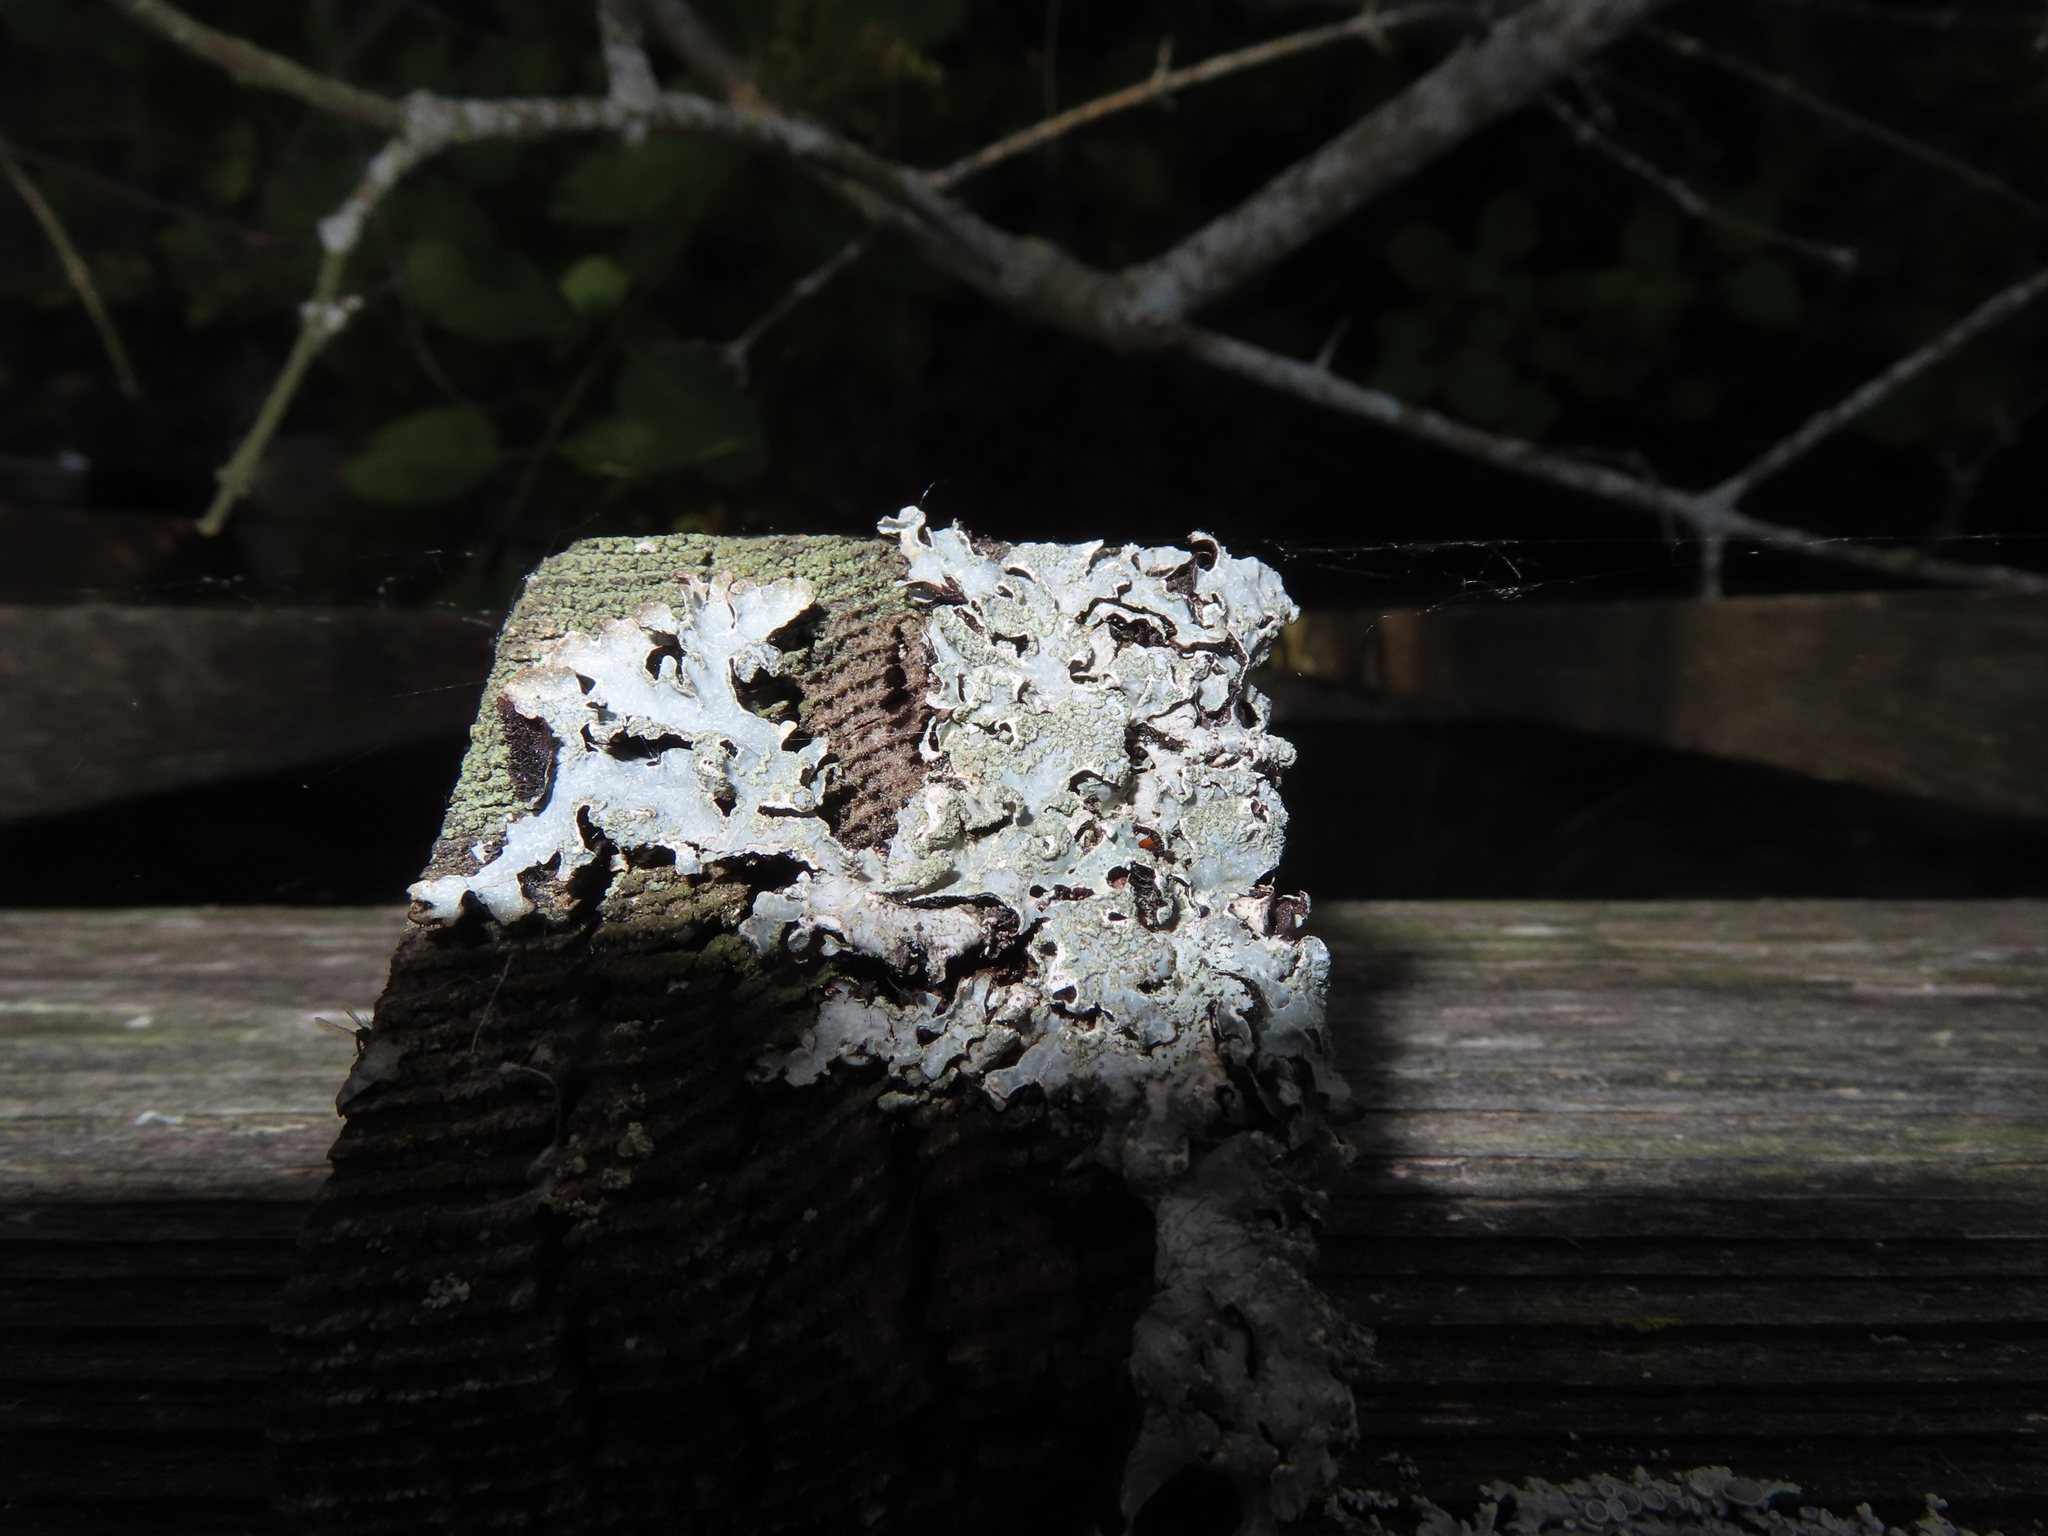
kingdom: Fungi
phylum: Ascomycota
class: Lecanoromycetes
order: Lecanorales
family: Parmeliaceae
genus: Parmelia
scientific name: Parmelia sulcata
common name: Netted shield lichen
